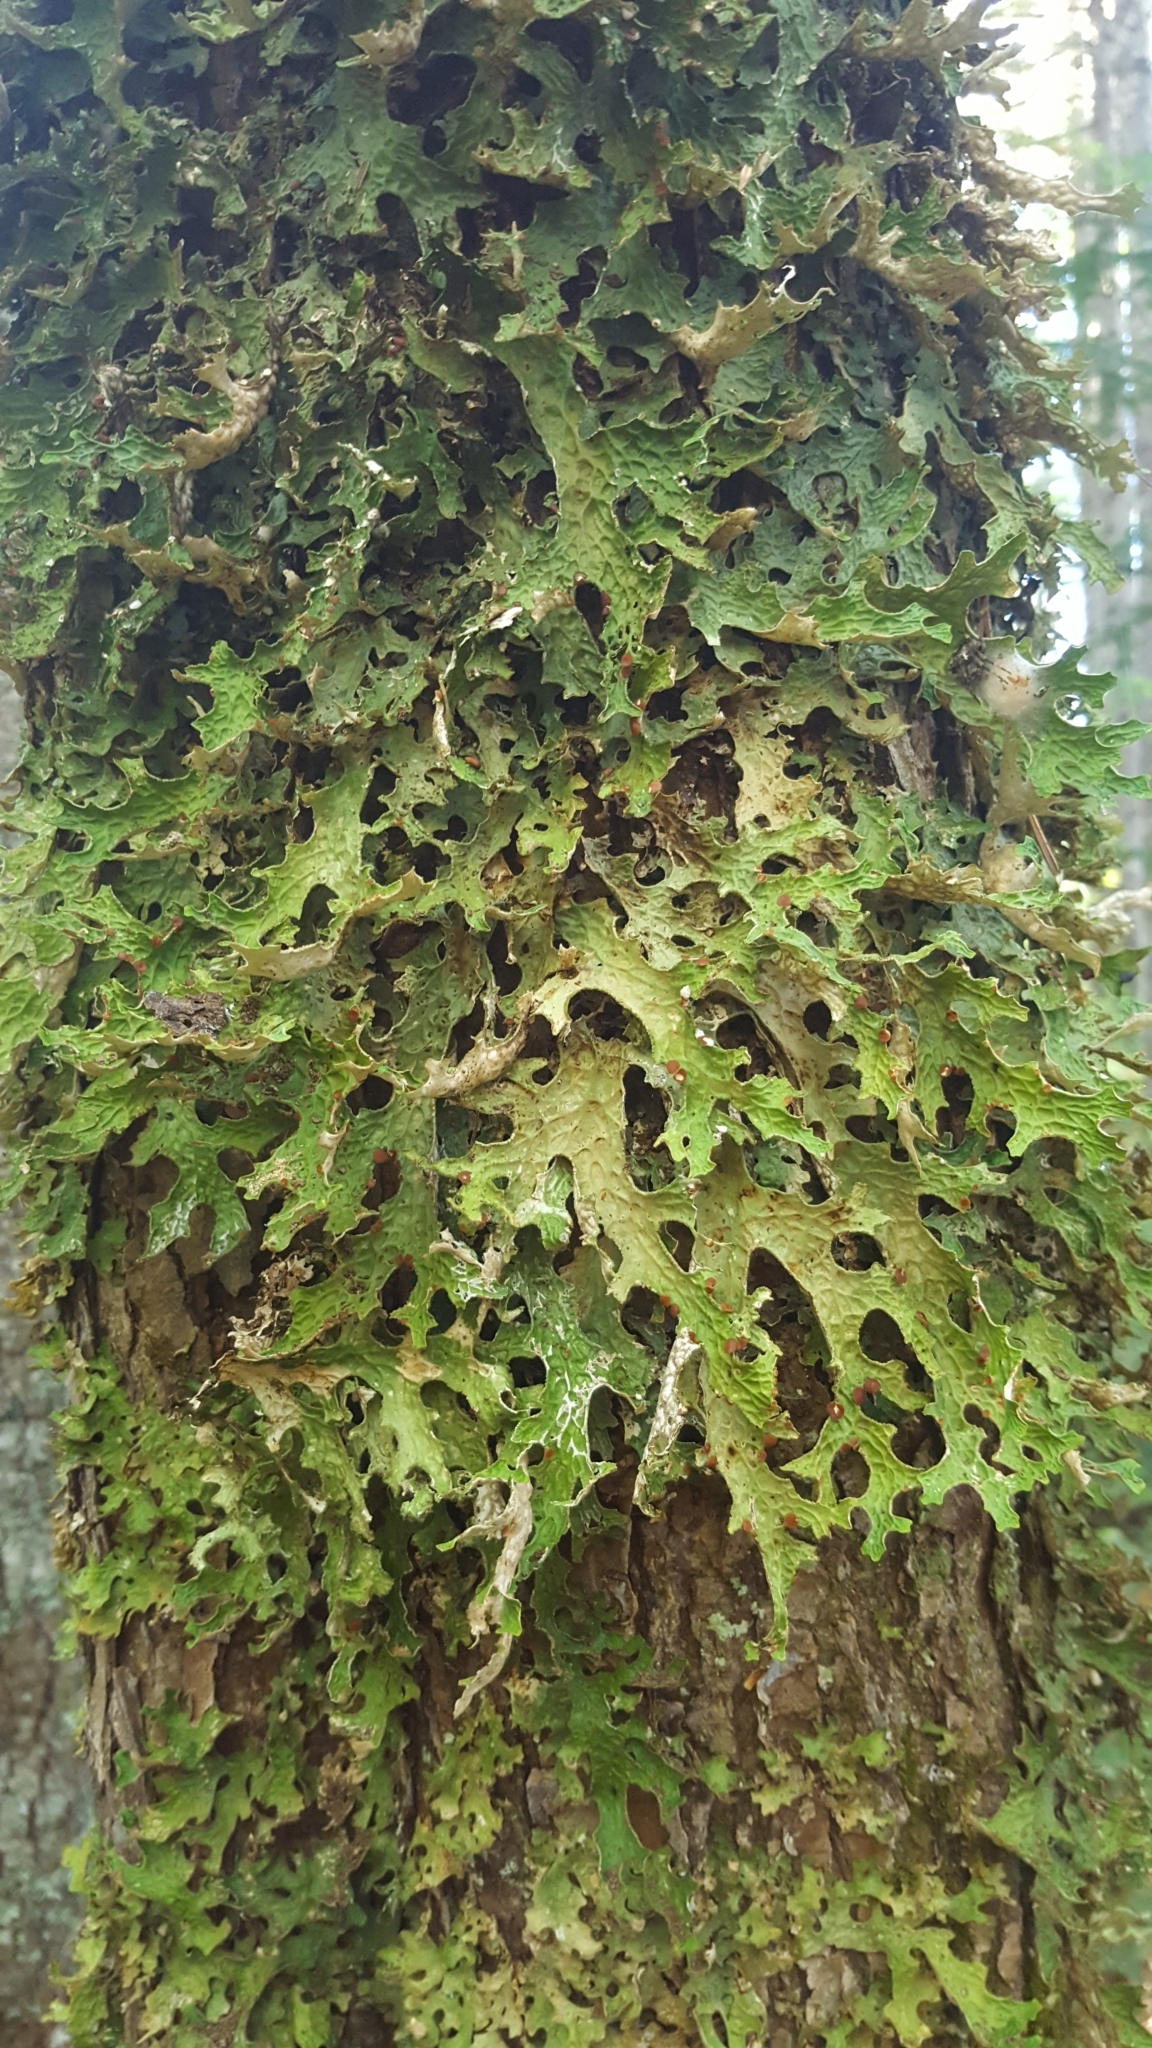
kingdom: Fungi
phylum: Ascomycota
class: Lecanoromycetes
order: Peltigerales
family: Lobariaceae
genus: Lobaria
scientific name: Lobaria pulmonaria
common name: Lungwort
